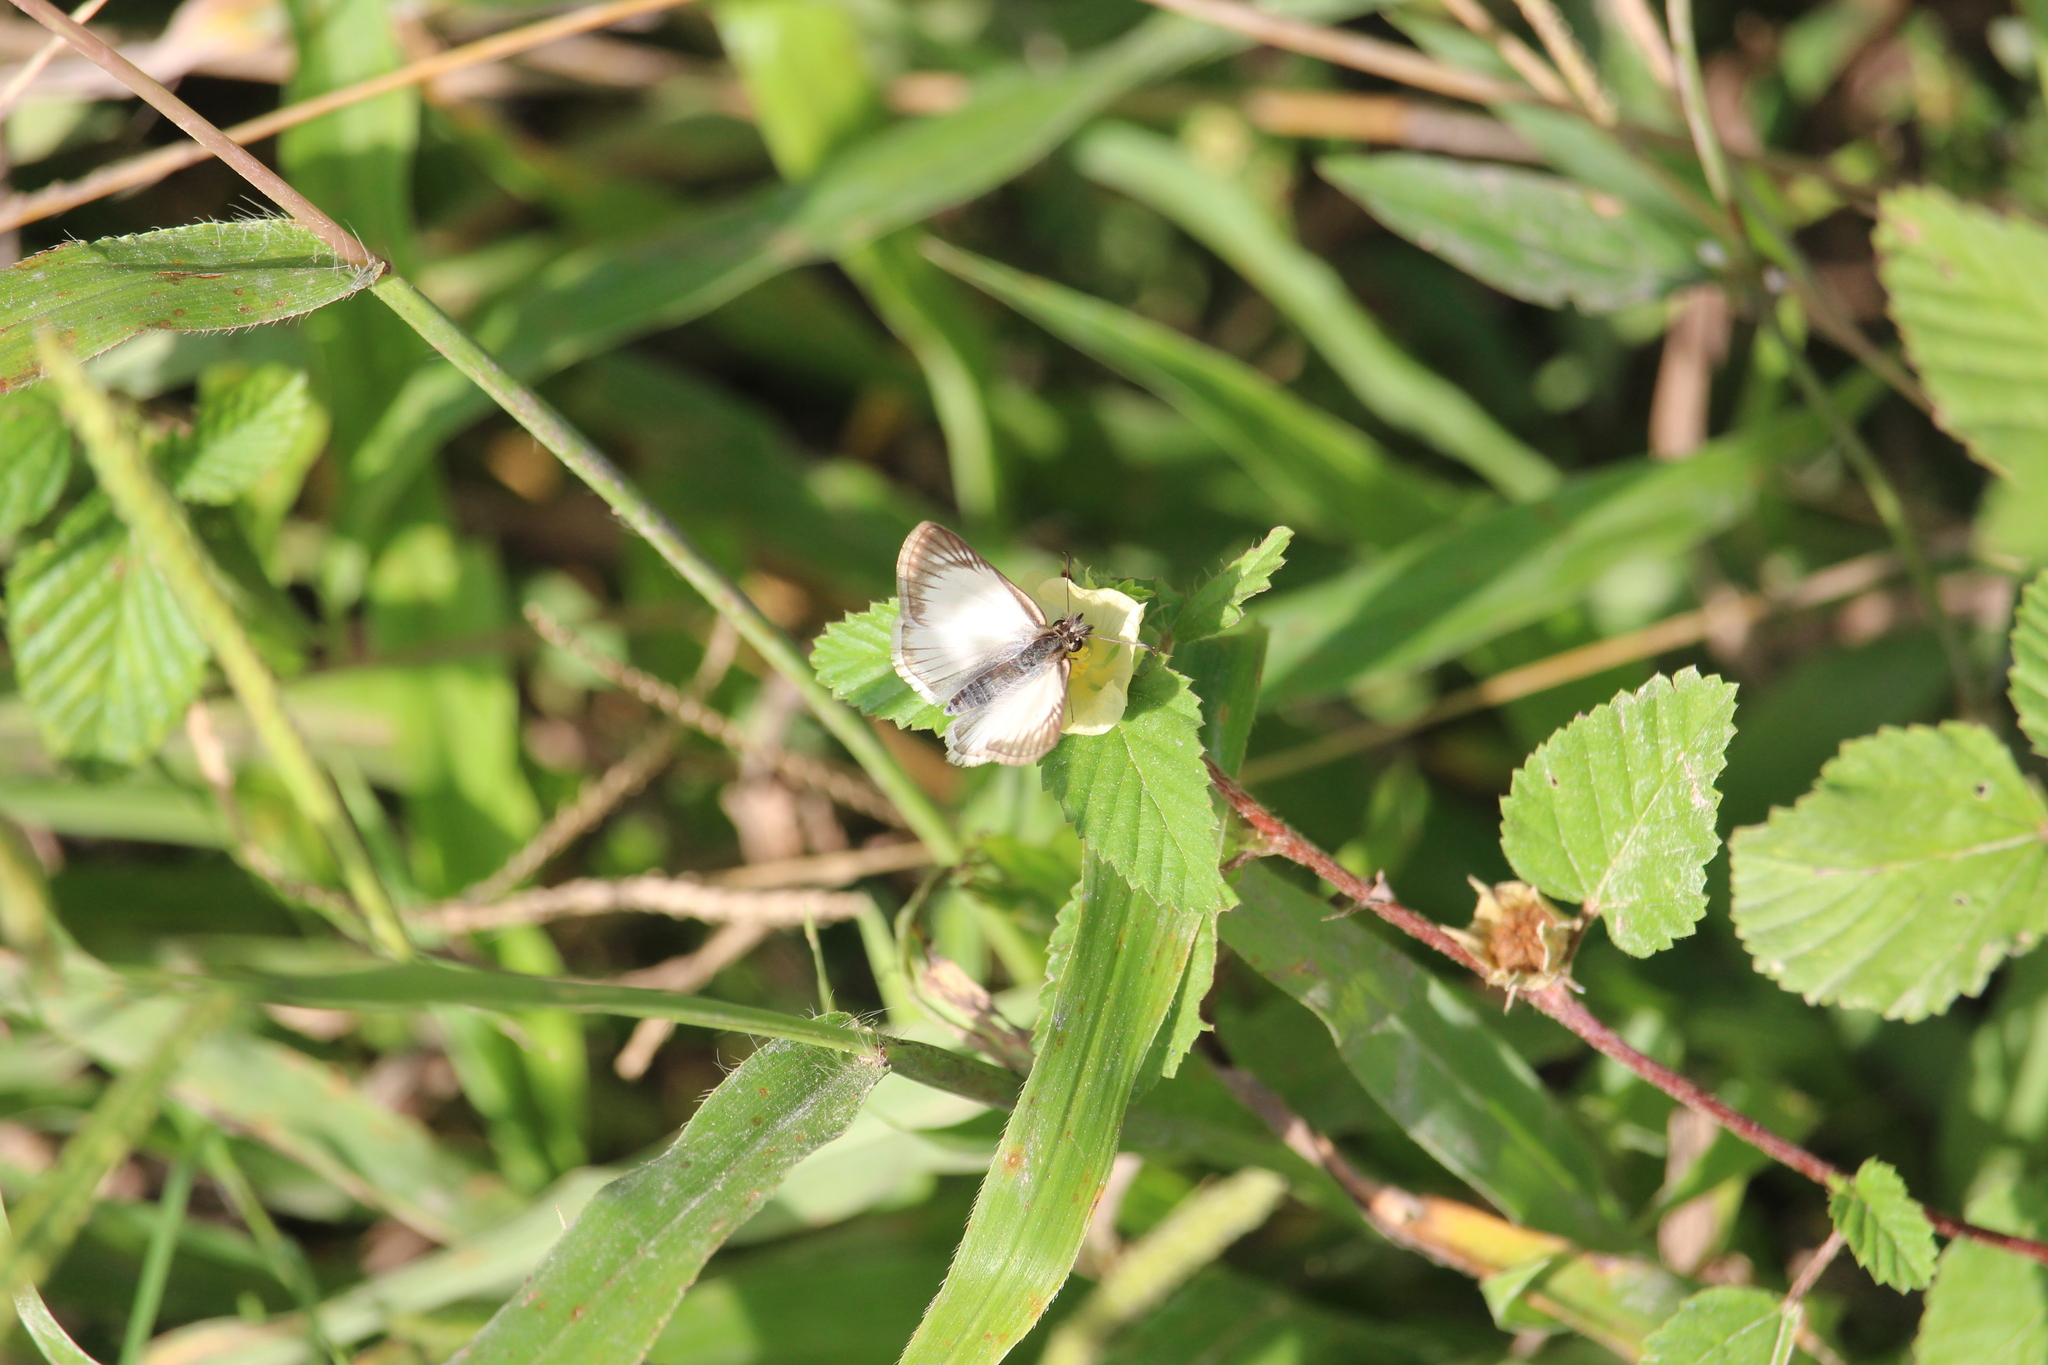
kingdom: Animalia
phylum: Arthropoda
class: Insecta
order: Lepidoptera
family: Hesperiidae
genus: Heliopetes
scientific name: Heliopetes arsalte
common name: Veined white-skipper
